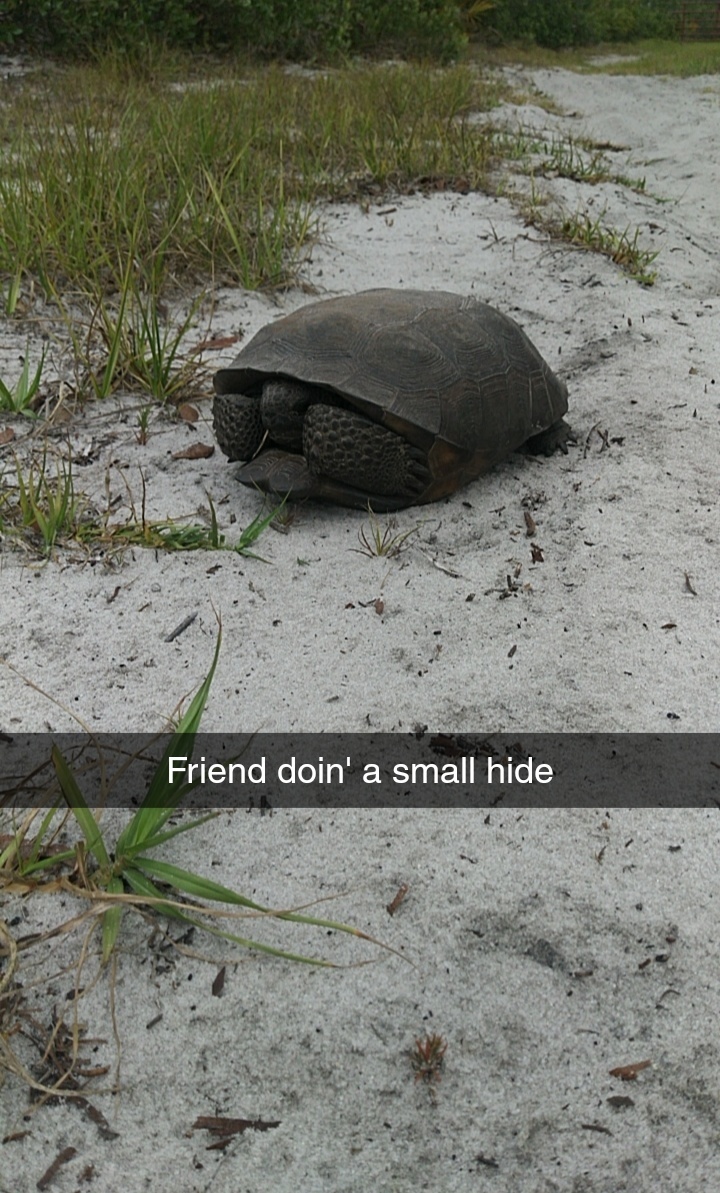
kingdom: Animalia
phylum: Chordata
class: Testudines
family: Testudinidae
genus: Gopherus
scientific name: Gopherus polyphemus
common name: Florida gopher tortoise
